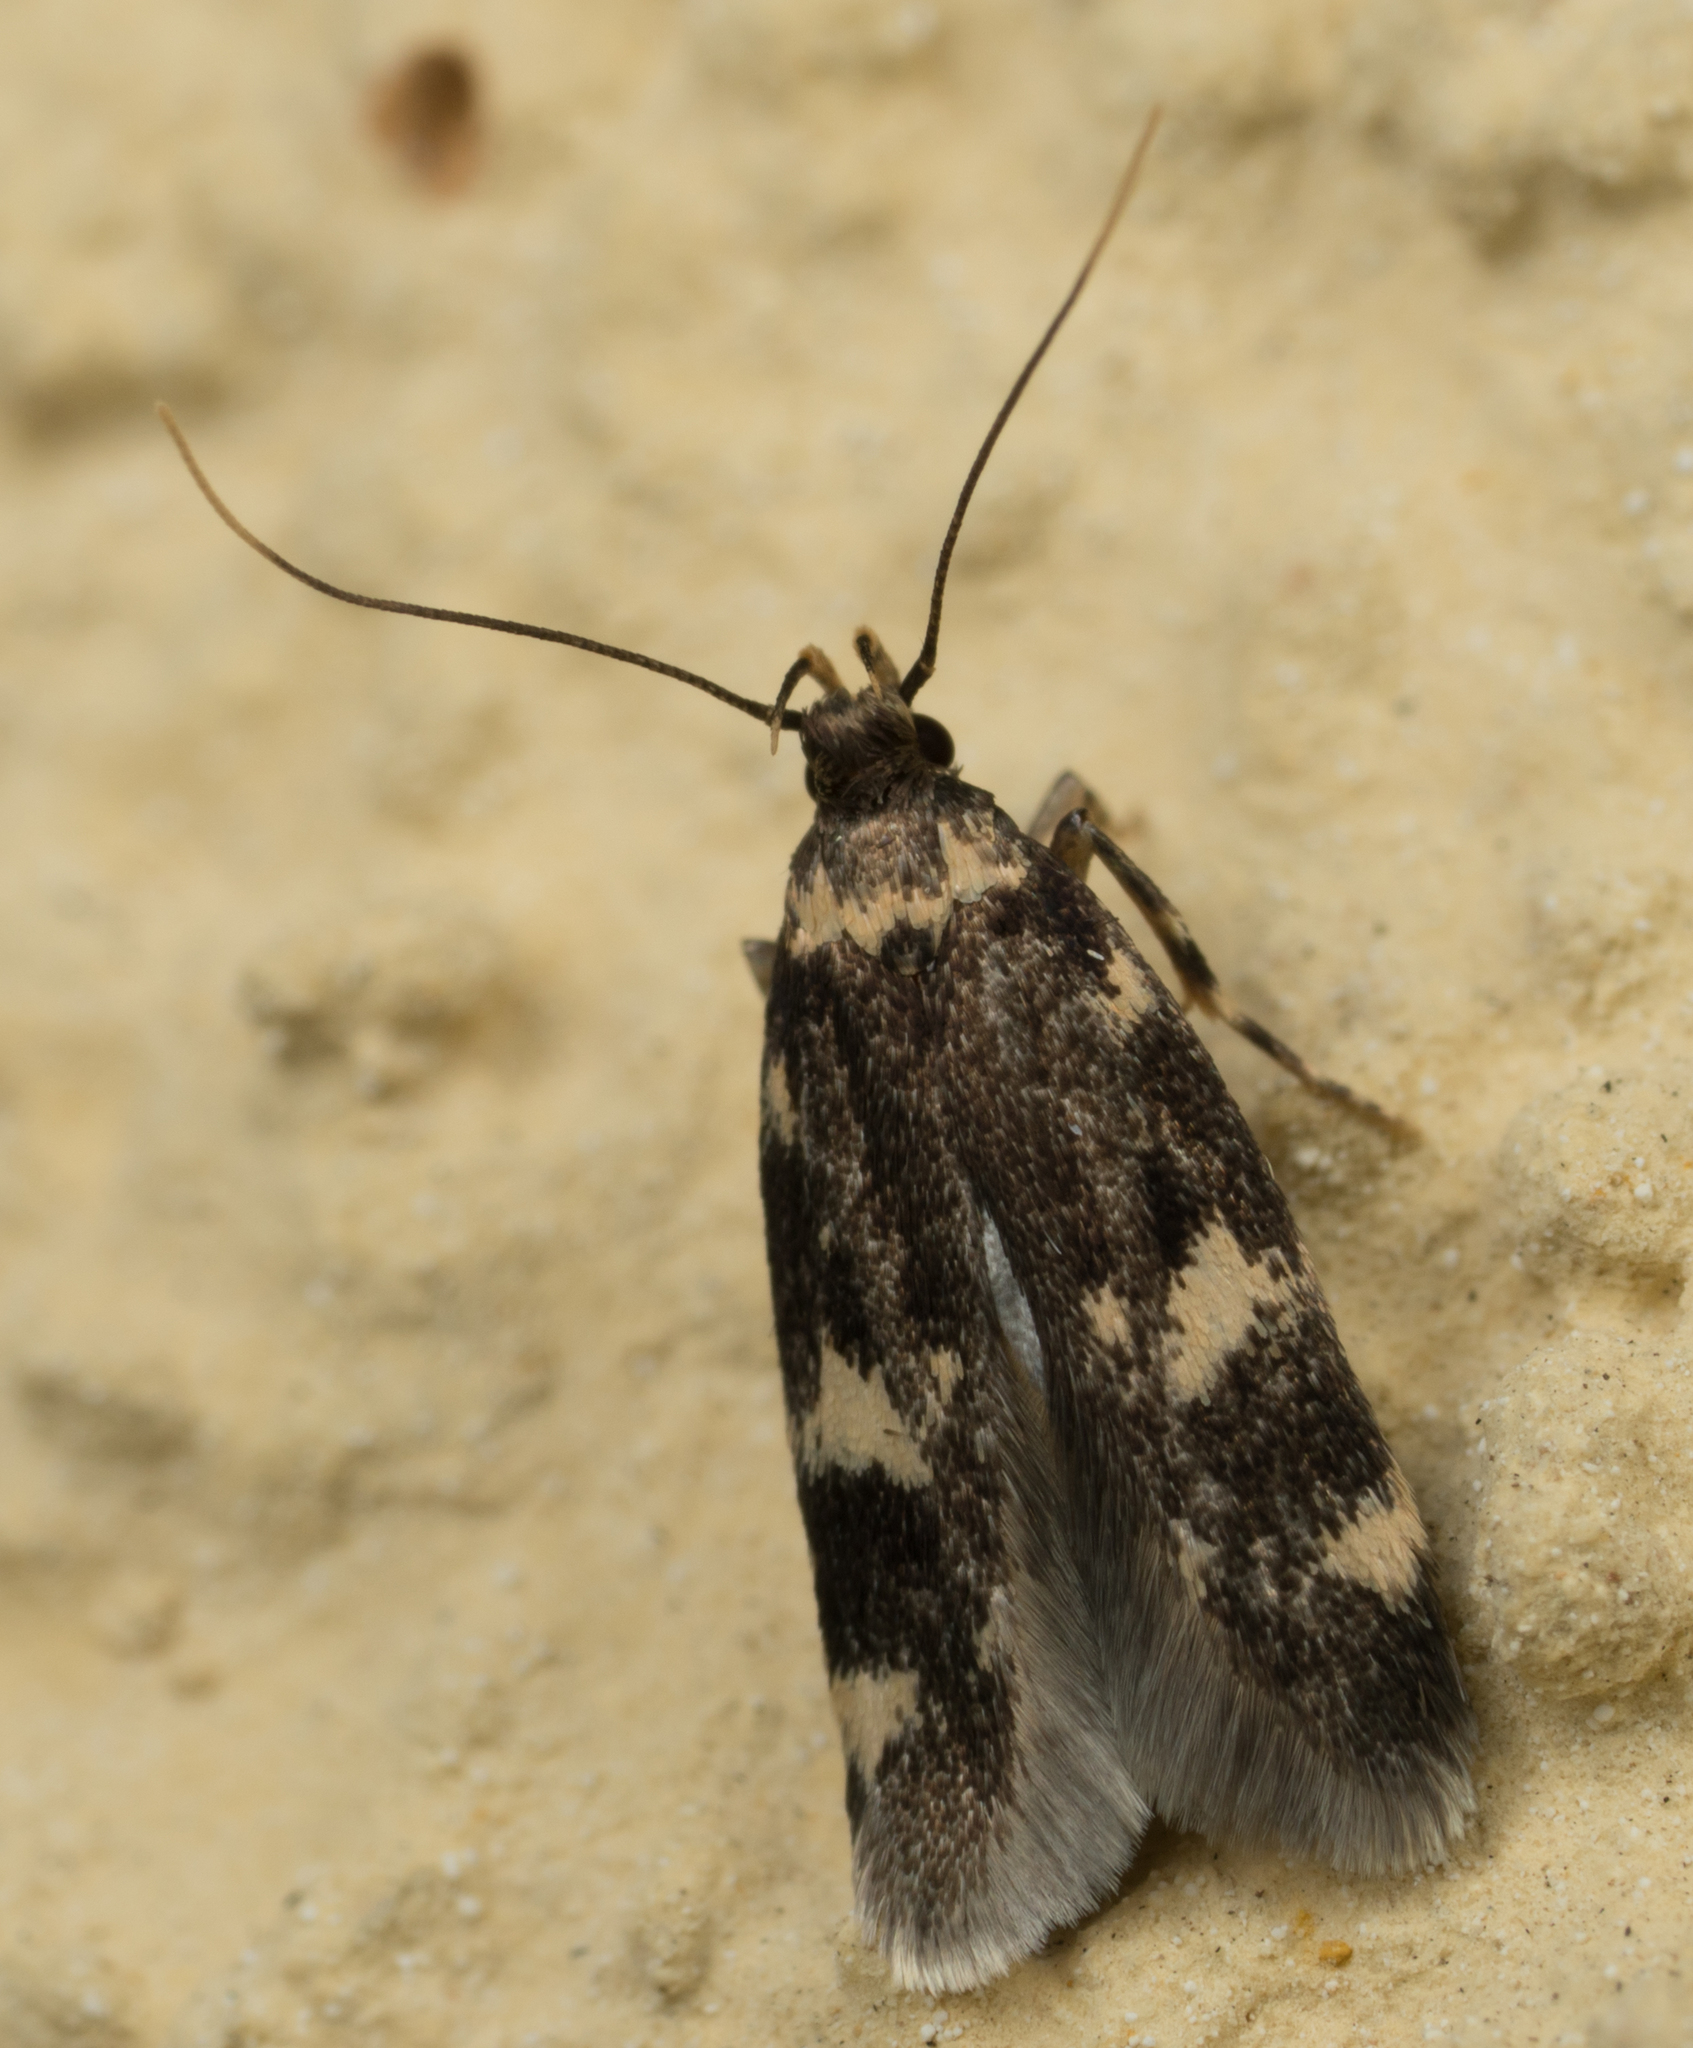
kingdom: Animalia
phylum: Arthropoda
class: Insecta
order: Lepidoptera
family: Autostichidae
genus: Oegoconia
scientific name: Oegoconia quadripuncta
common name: Four-spotted obscure
